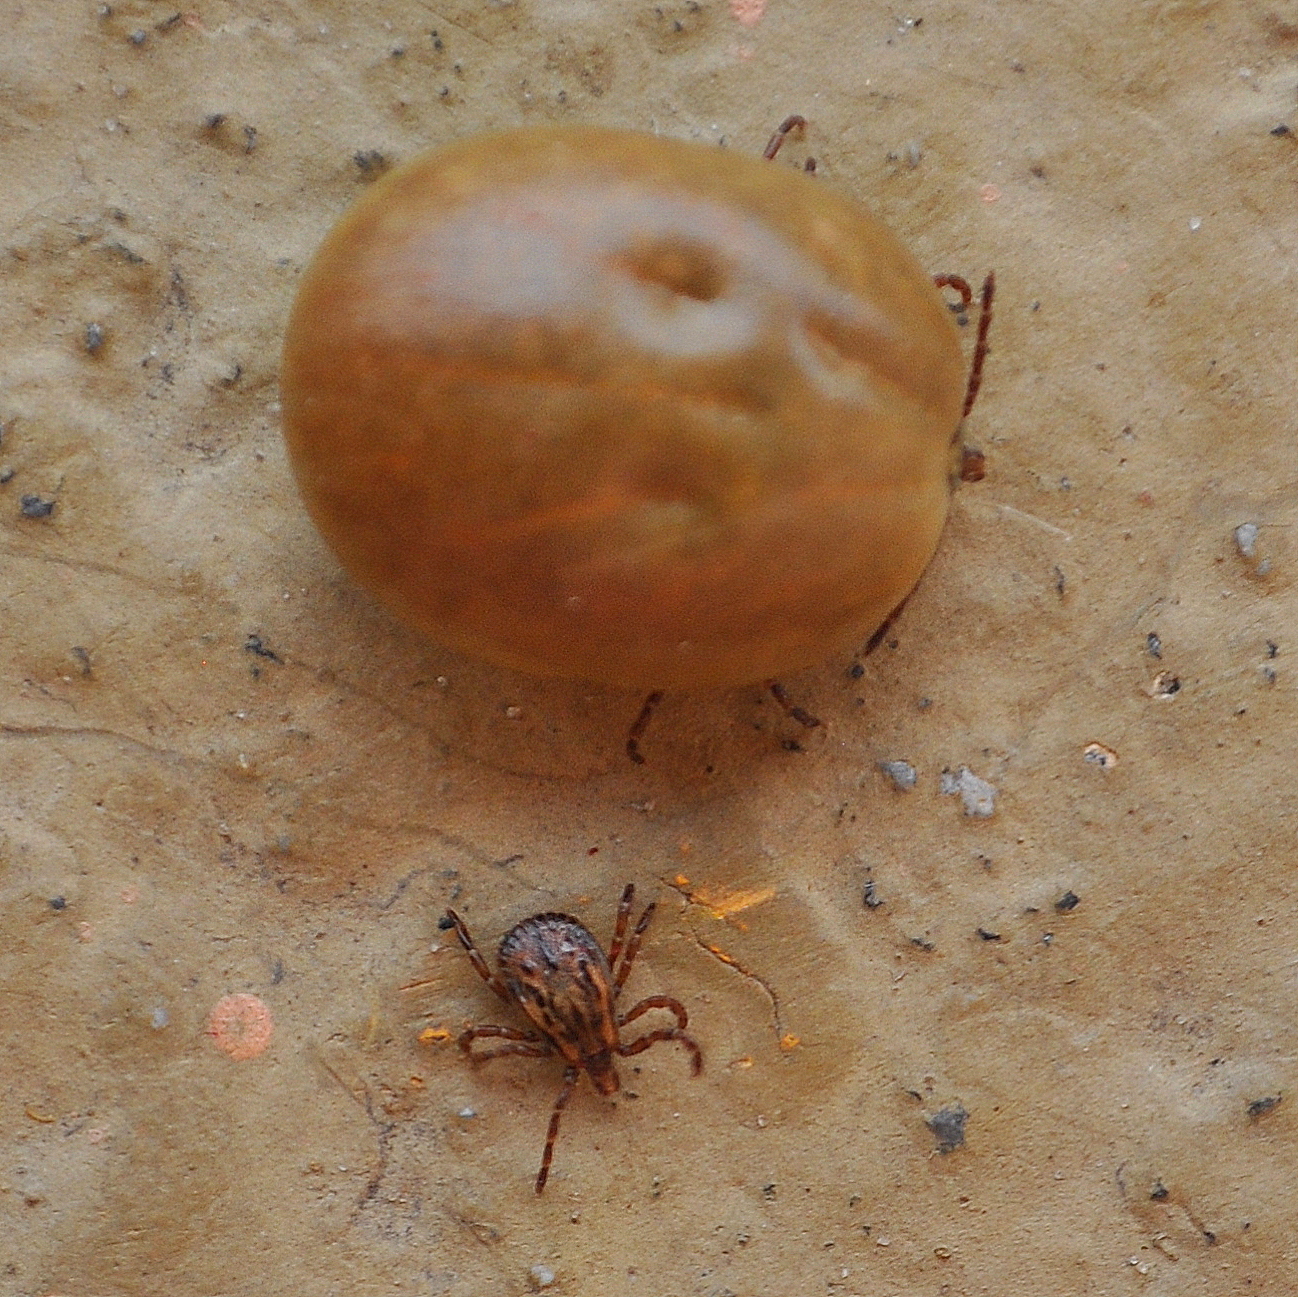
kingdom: Animalia
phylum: Arthropoda
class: Arachnida
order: Ixodida
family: Ixodidae
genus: Rhipicephalus
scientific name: Rhipicephalus sanguineus
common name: Brown dog tick
